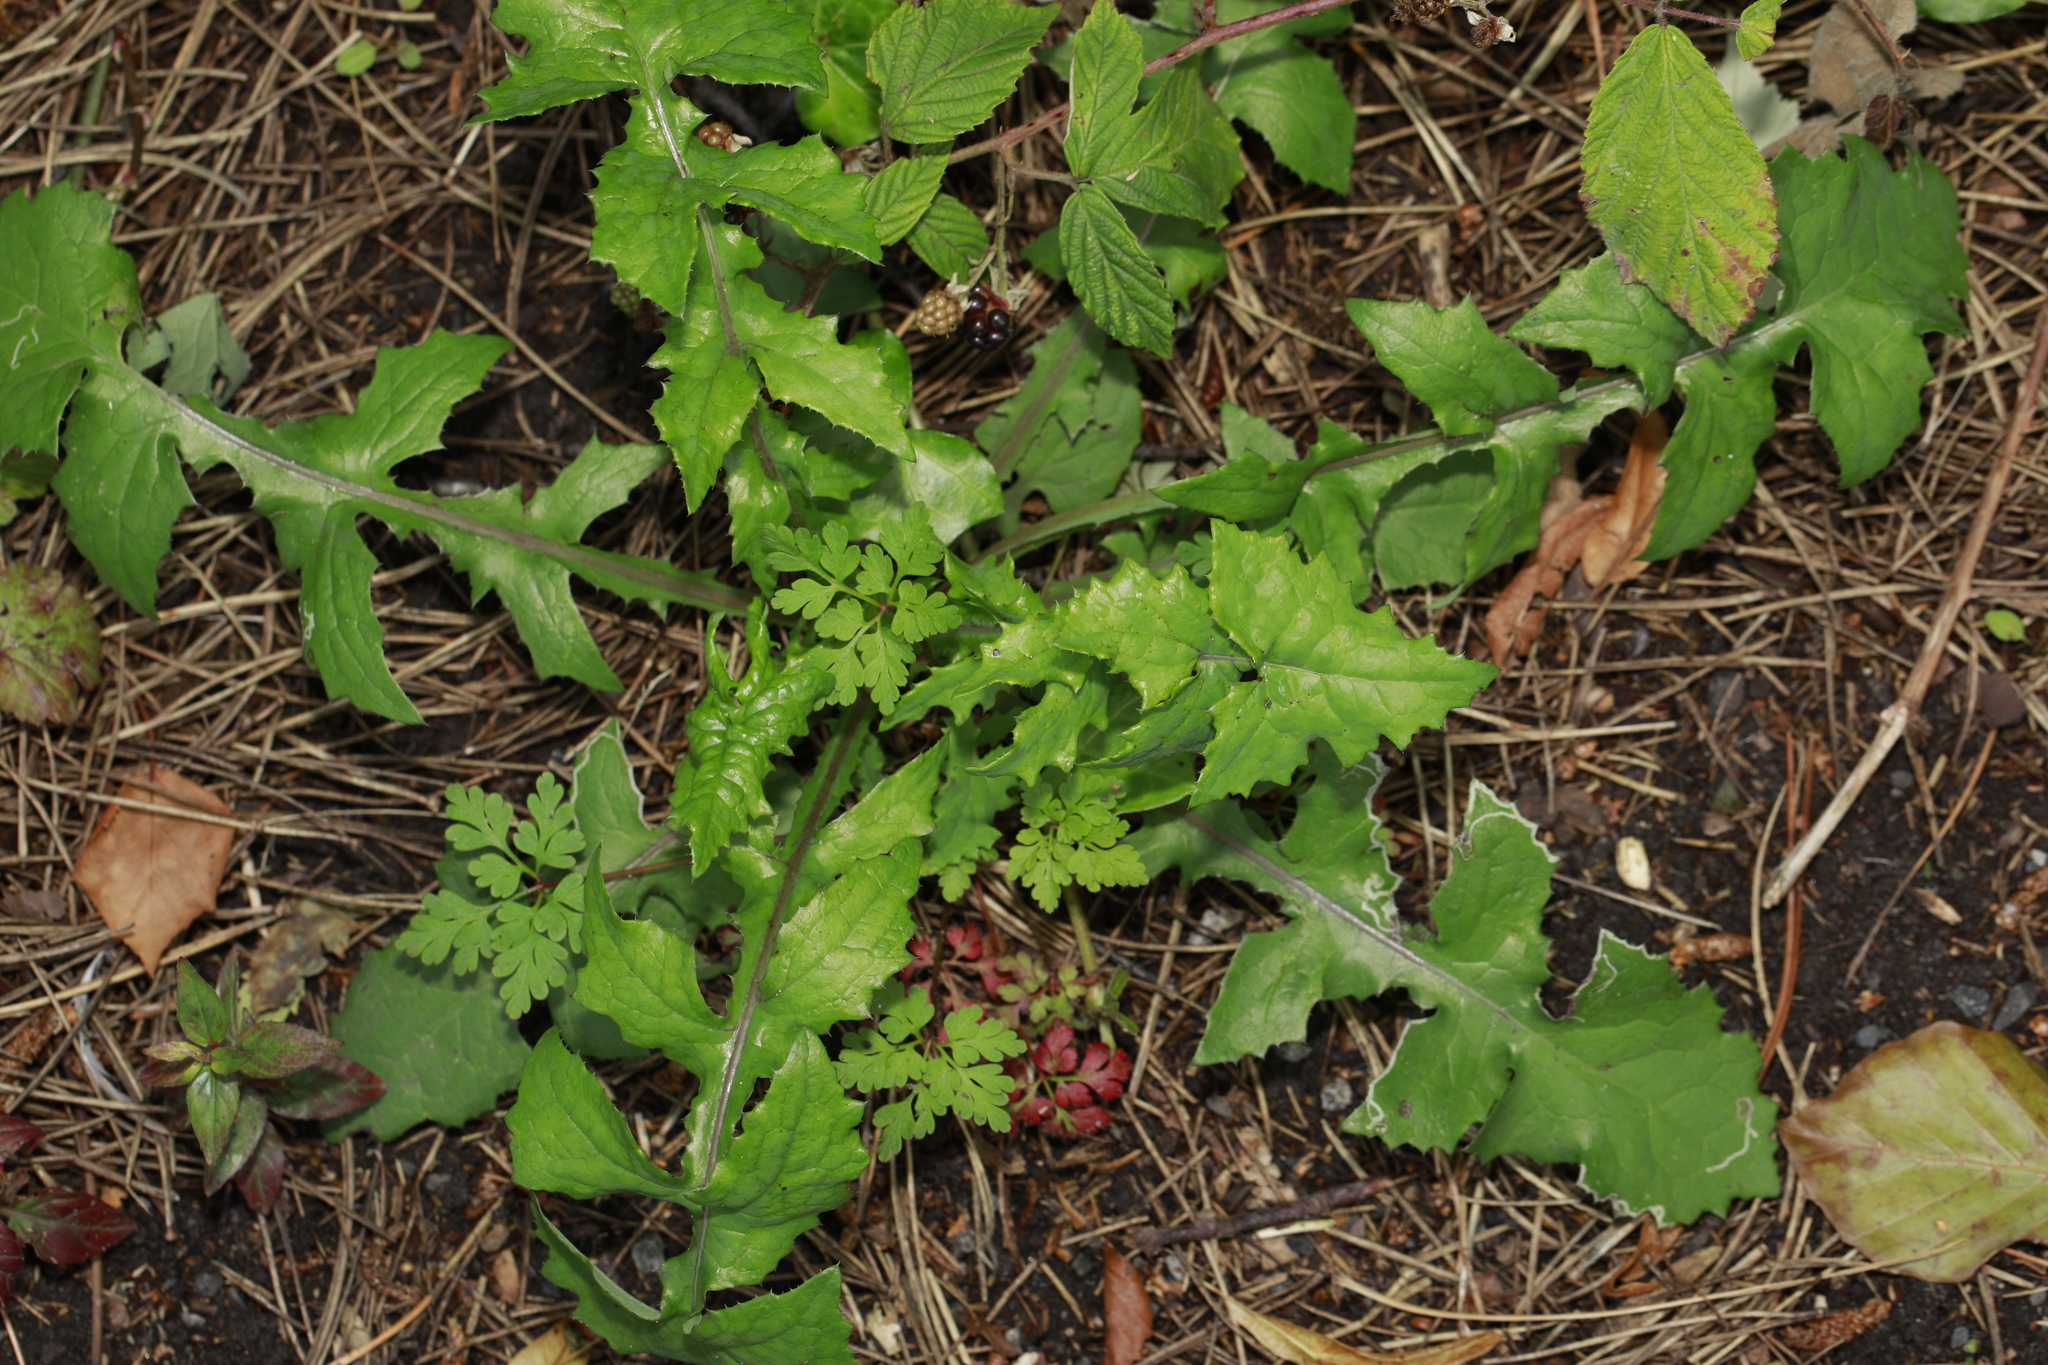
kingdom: Plantae
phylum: Tracheophyta
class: Magnoliopsida
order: Asterales
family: Asteraceae
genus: Sonchus
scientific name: Sonchus oleraceus
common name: Common sowthistle
